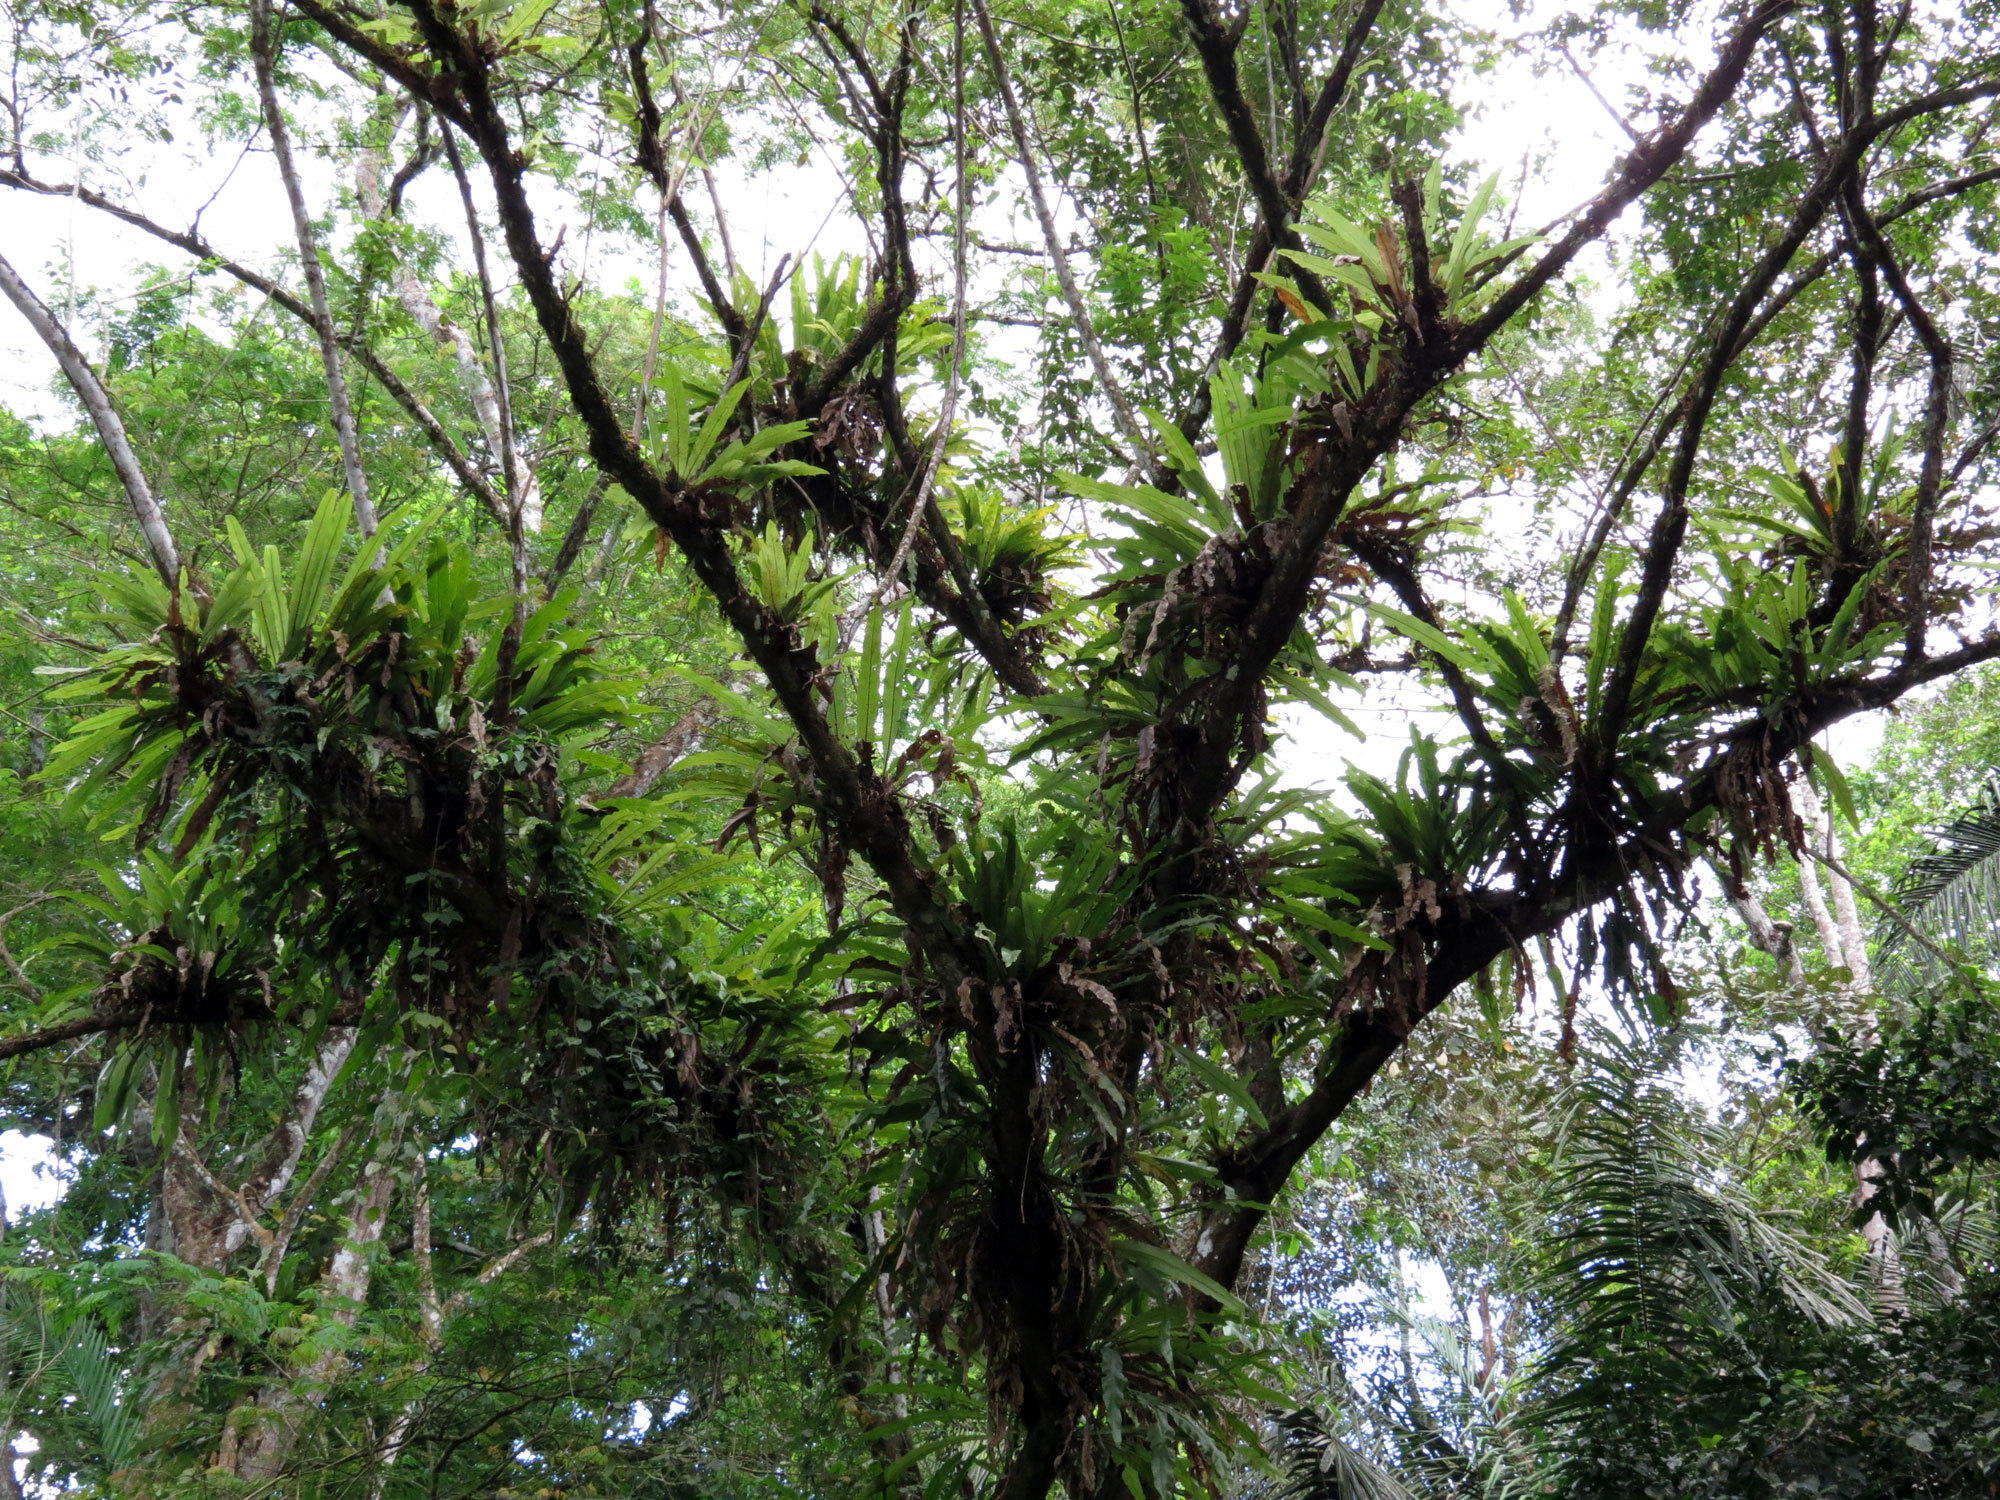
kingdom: Plantae
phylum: Tracheophyta
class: Polypodiopsida
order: Polypodiales
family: Polypodiaceae
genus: Niphidium
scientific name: Niphidium crassifolium
